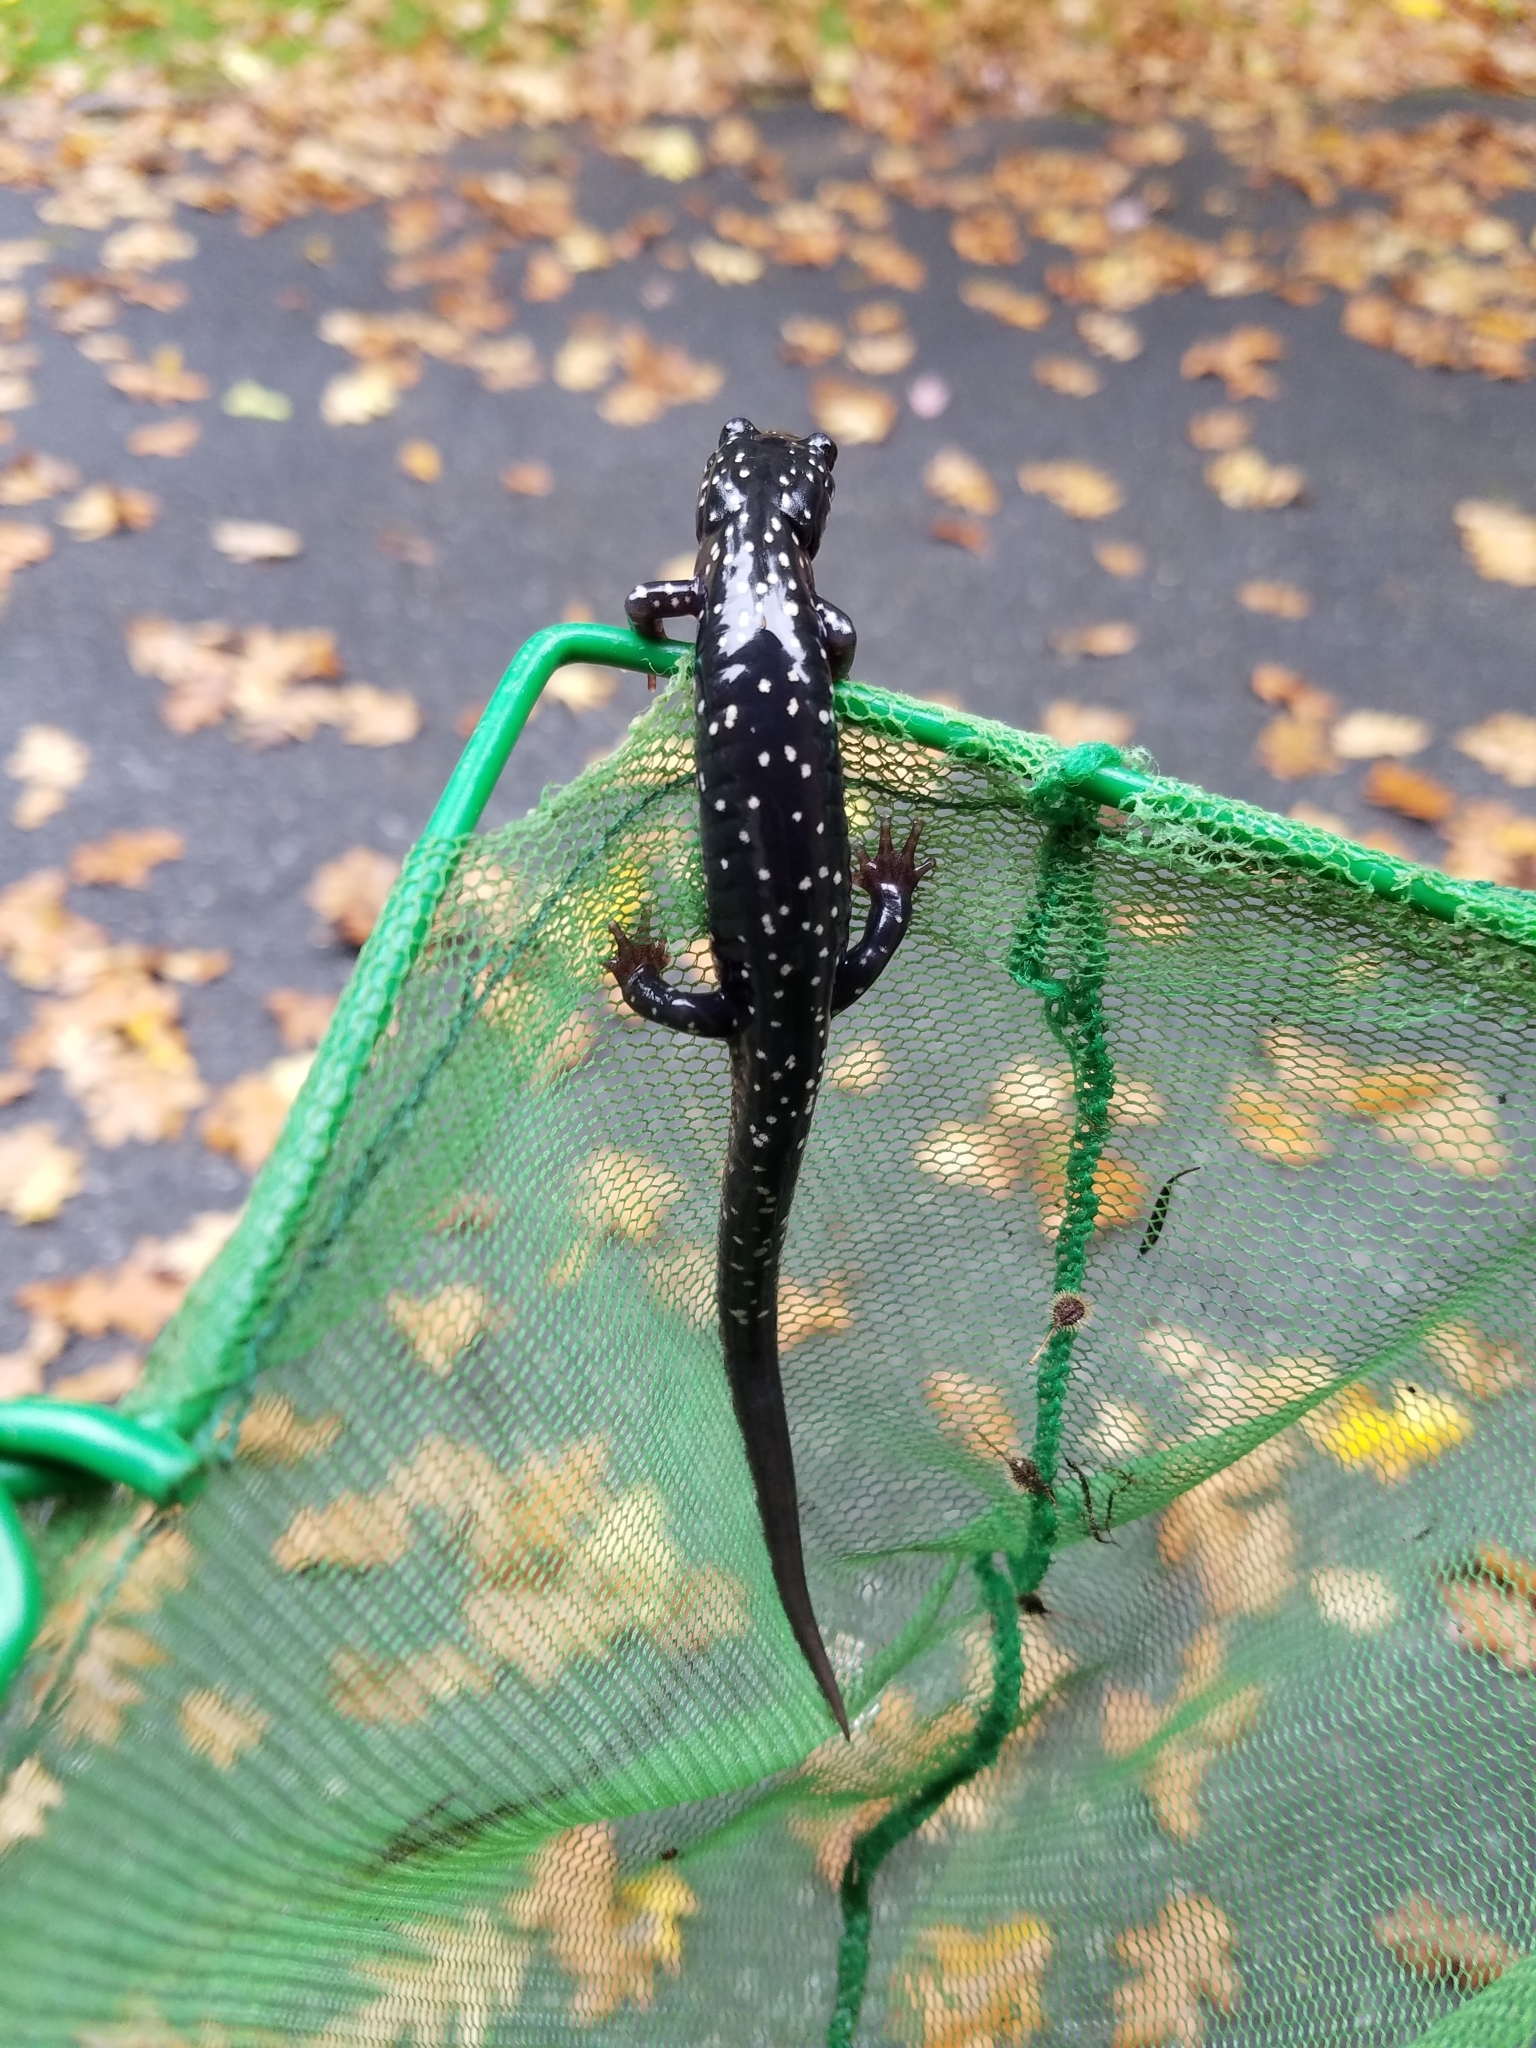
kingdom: Animalia
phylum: Chordata
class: Amphibia
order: Caudata
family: Plethodontidae
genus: Plethodon
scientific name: Plethodon glutinosus
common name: Northern slimy salamander
